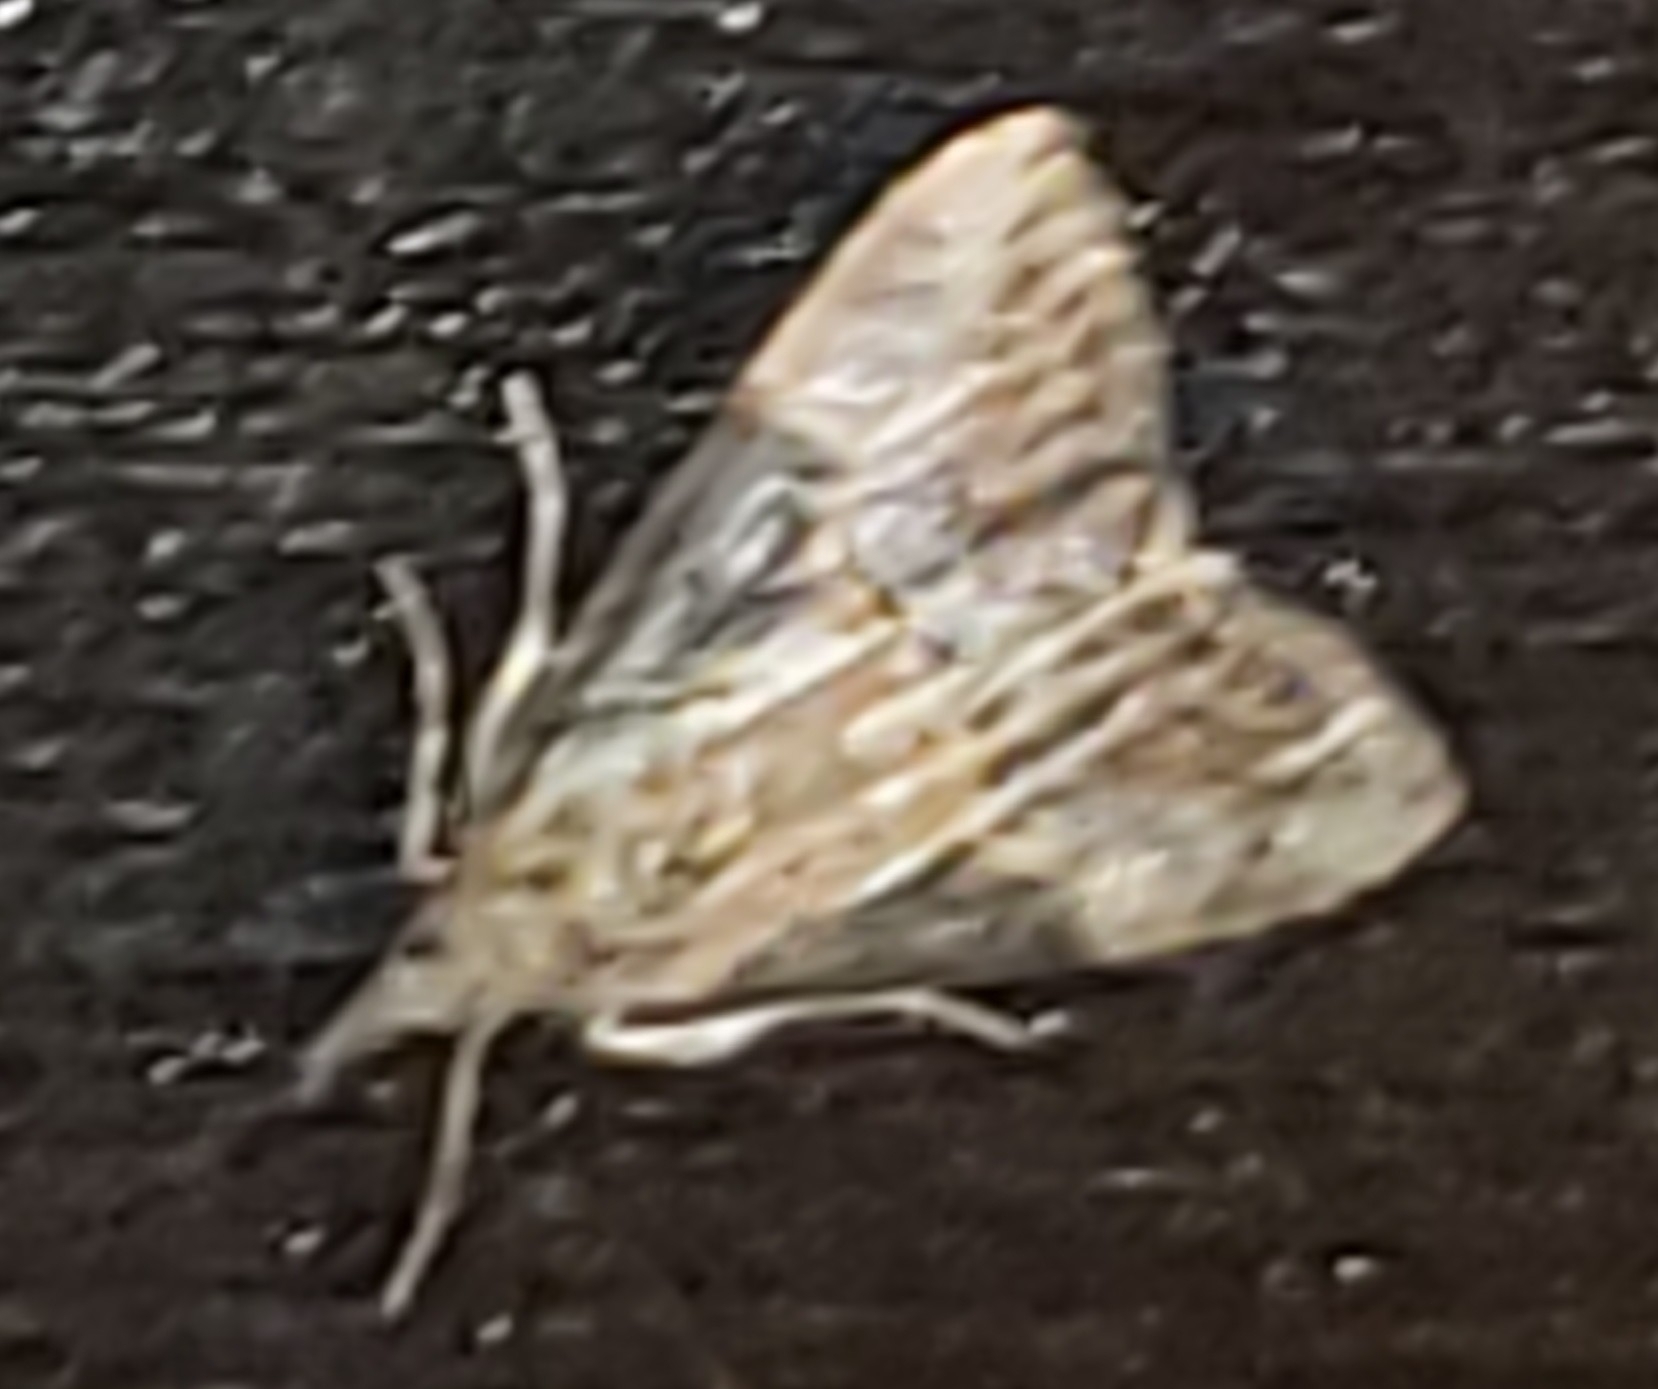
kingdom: Animalia
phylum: Arthropoda
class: Insecta
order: Lepidoptera
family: Erebidae
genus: Hypena
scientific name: Hypena scabra
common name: Green cloverworm
